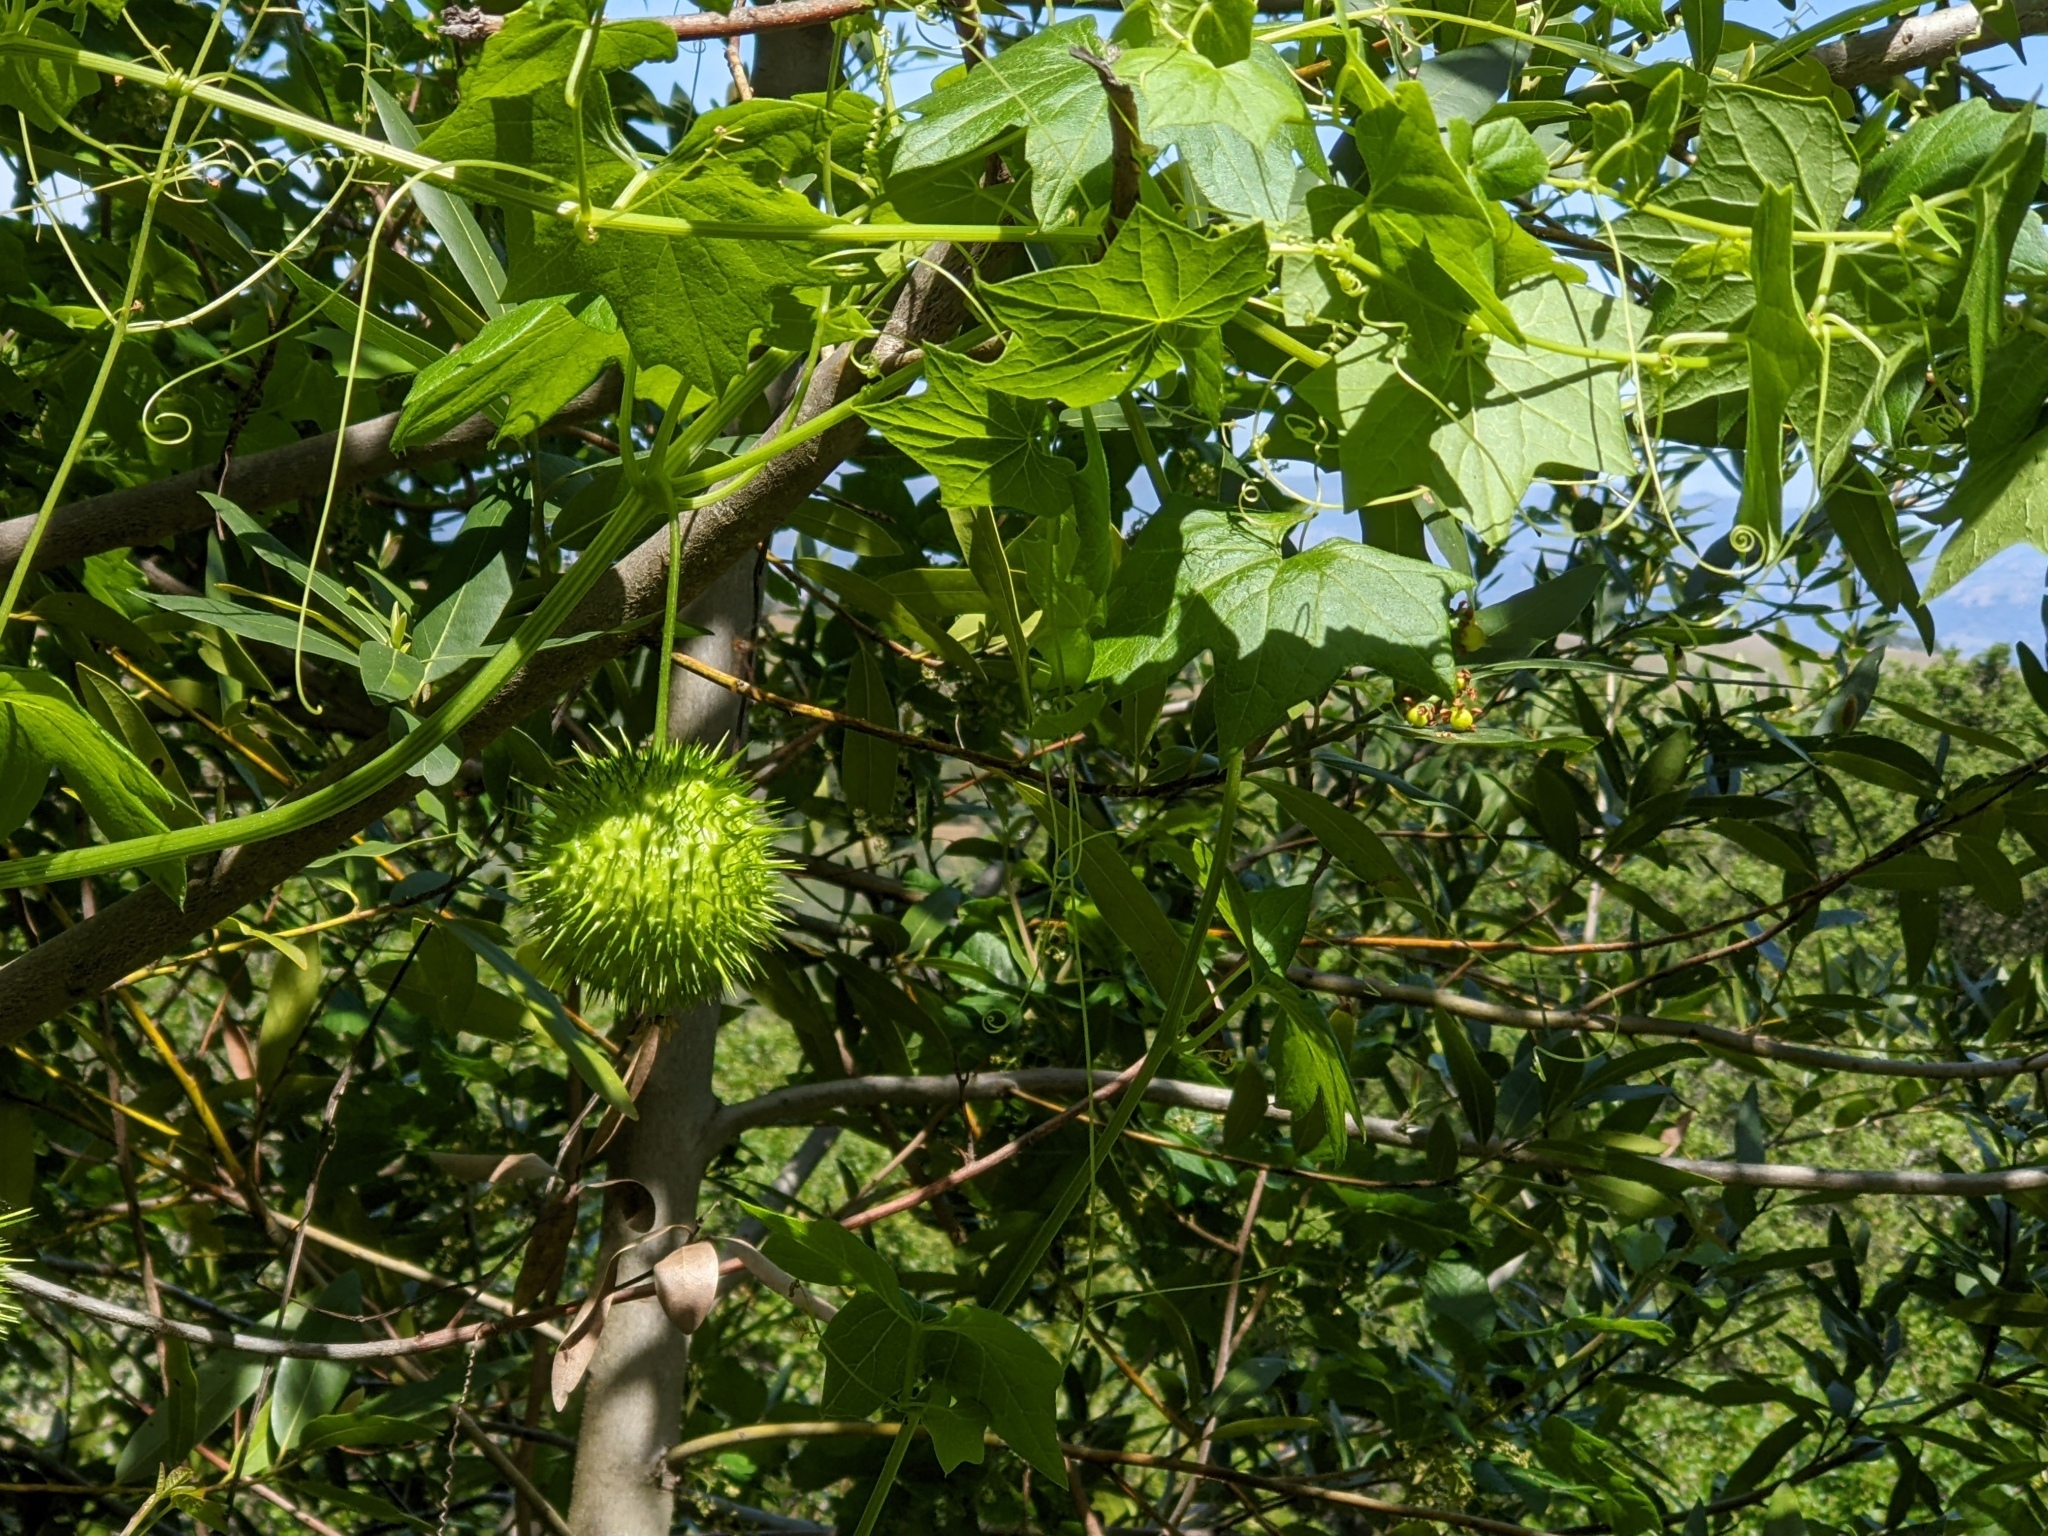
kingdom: Plantae
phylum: Tracheophyta
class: Magnoliopsida
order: Cucurbitales
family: Cucurbitaceae
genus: Marah
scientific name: Marah fabacea
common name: California manroot
